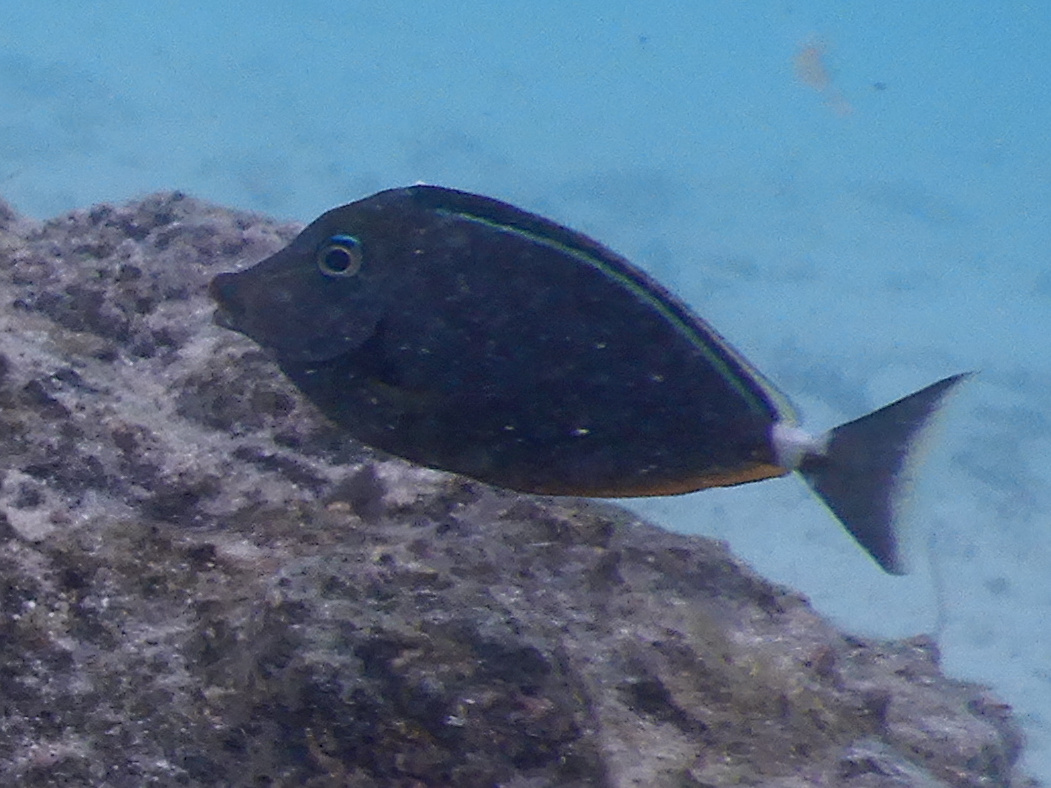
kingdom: Animalia
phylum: Chordata
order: Perciformes
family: Acanthuridae
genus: Naso
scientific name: Naso lituratus
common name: Orangespine unicornfish
